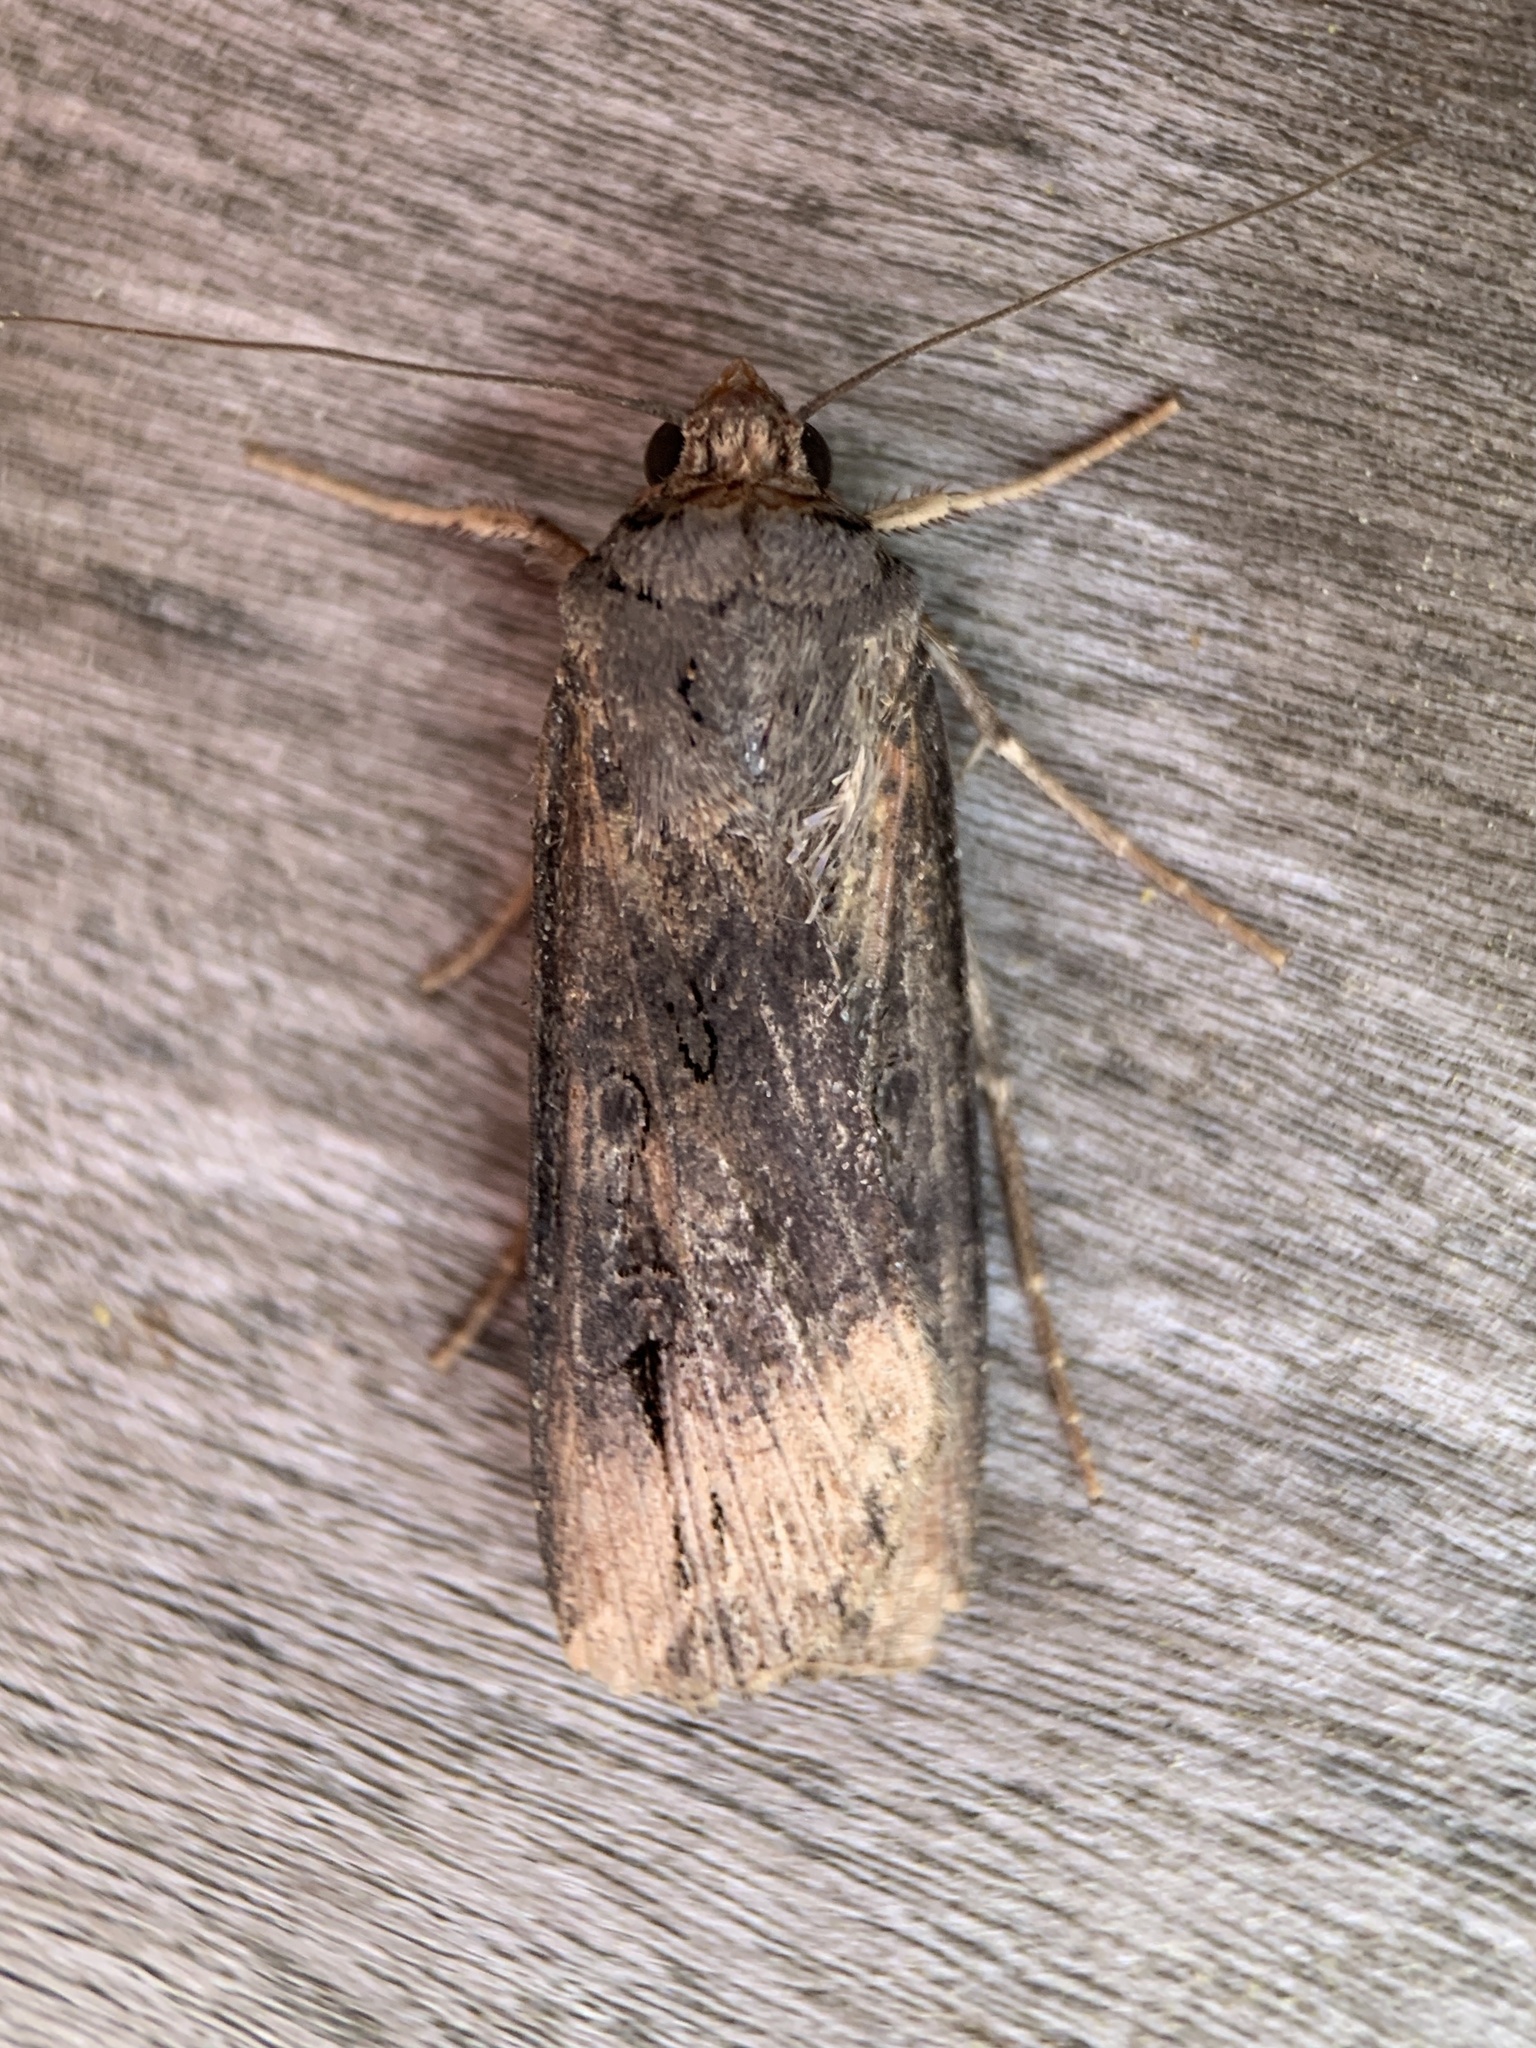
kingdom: Animalia
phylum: Arthropoda
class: Insecta
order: Lepidoptera
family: Noctuidae
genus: Agrotis
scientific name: Agrotis ipsilon
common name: Dark sword-grass
